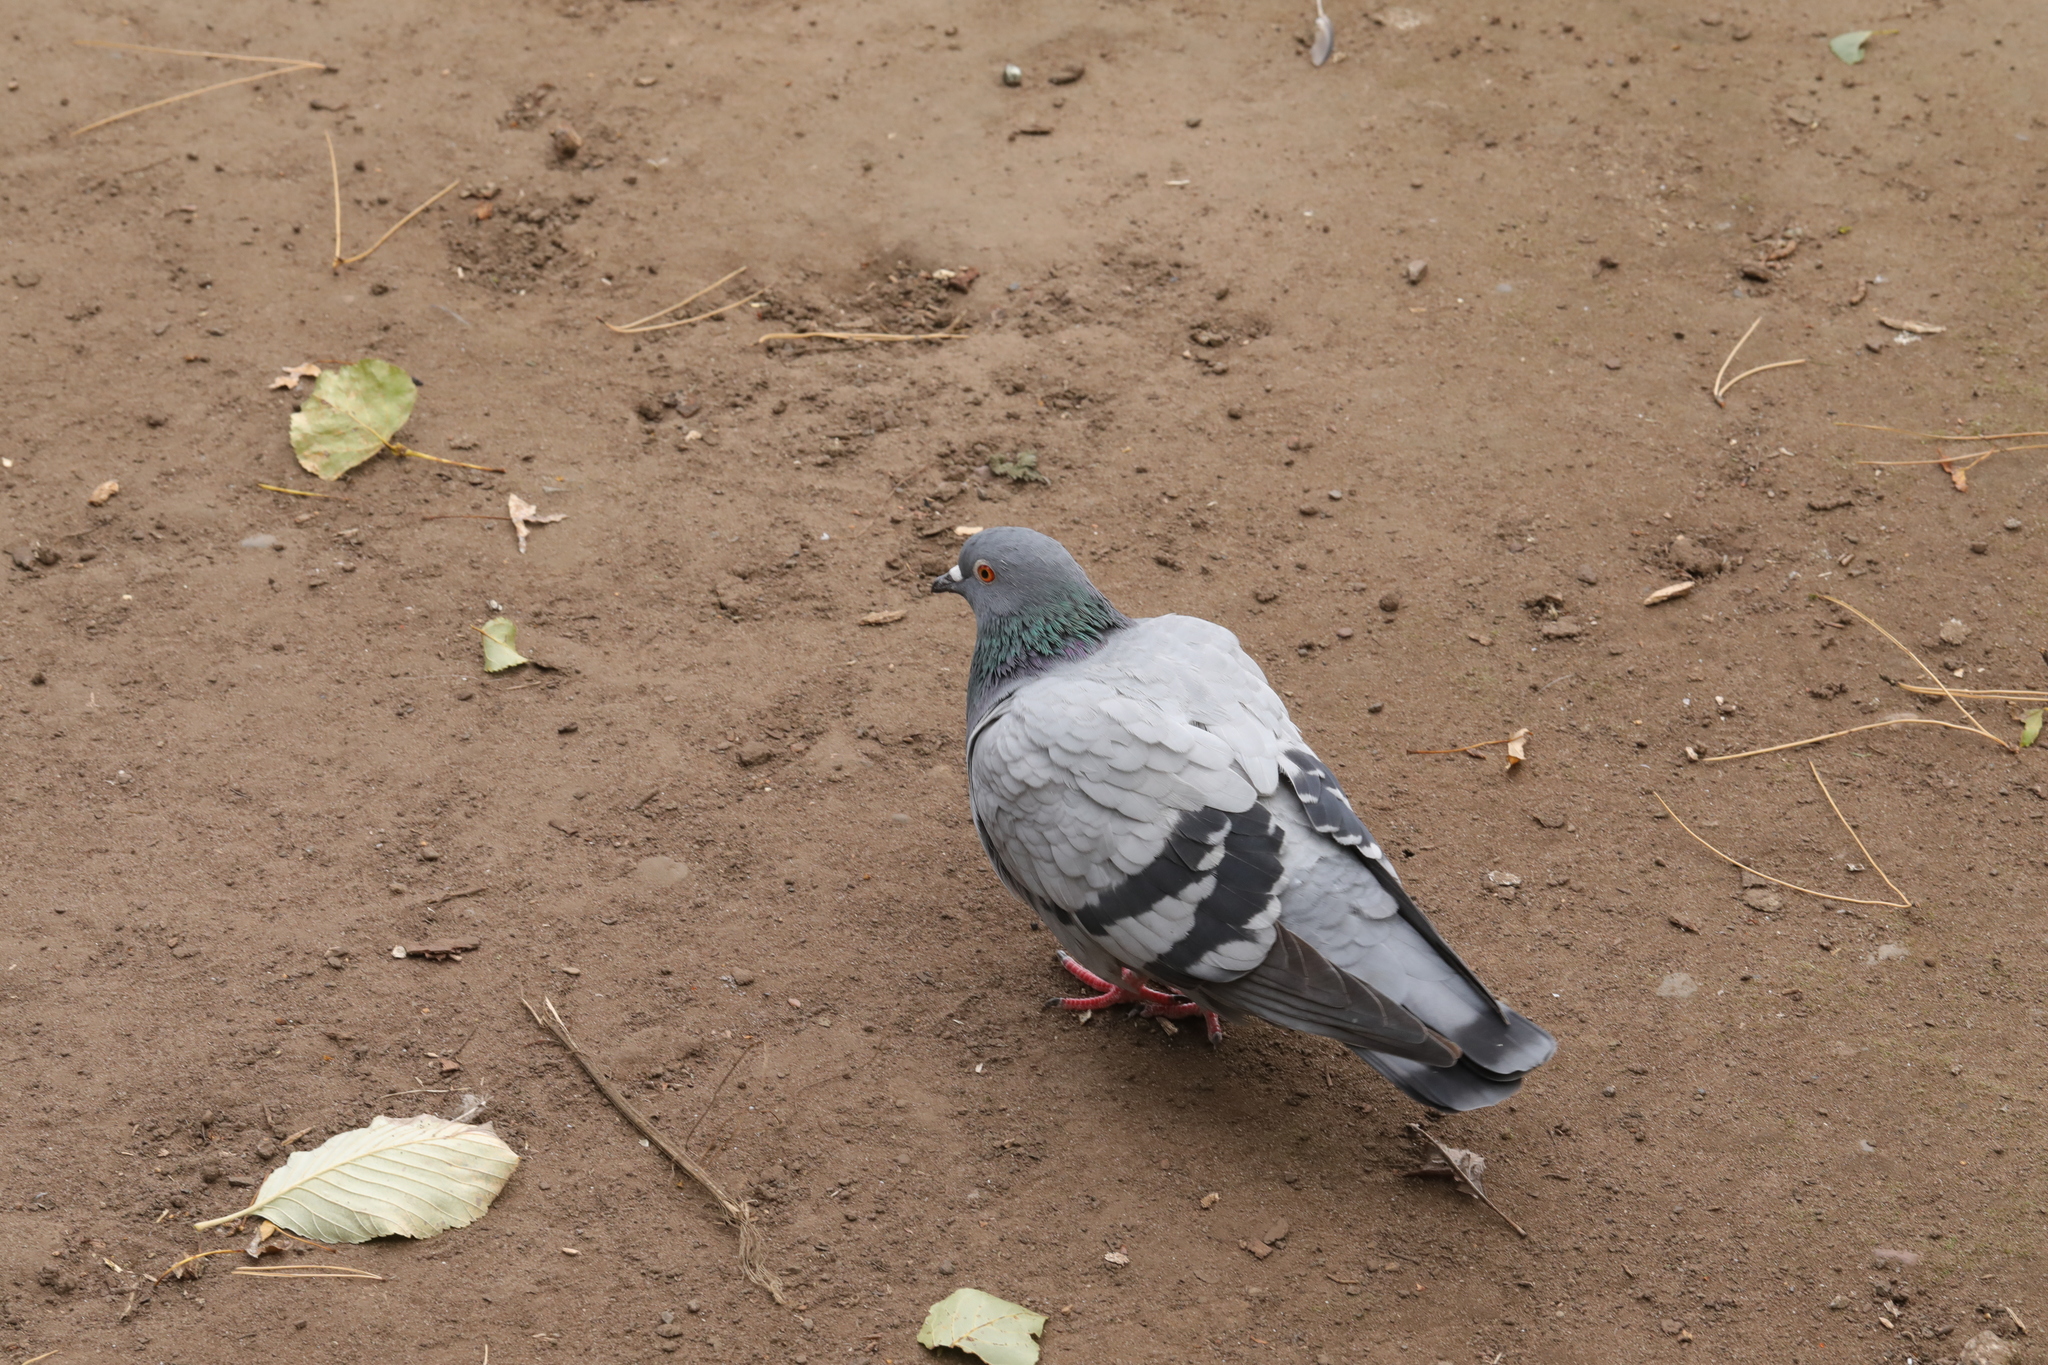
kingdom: Animalia
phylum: Chordata
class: Aves
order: Columbiformes
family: Columbidae
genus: Columba
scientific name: Columba livia
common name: Rock pigeon
